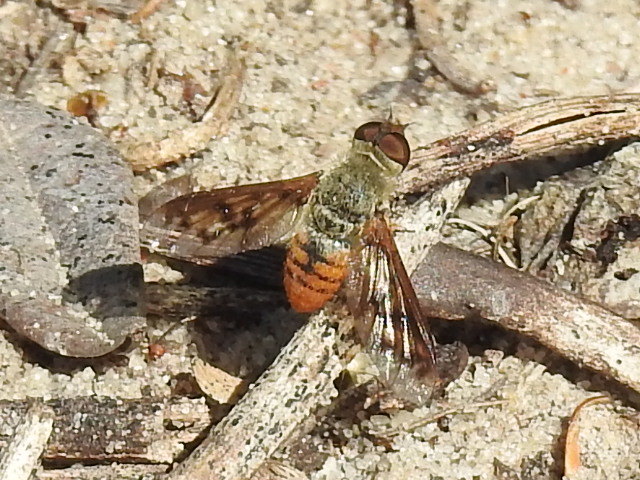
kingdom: Animalia
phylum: Arthropoda
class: Insecta
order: Diptera
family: Bombyliidae
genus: Neodiplocampta
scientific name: Neodiplocampta miranda
